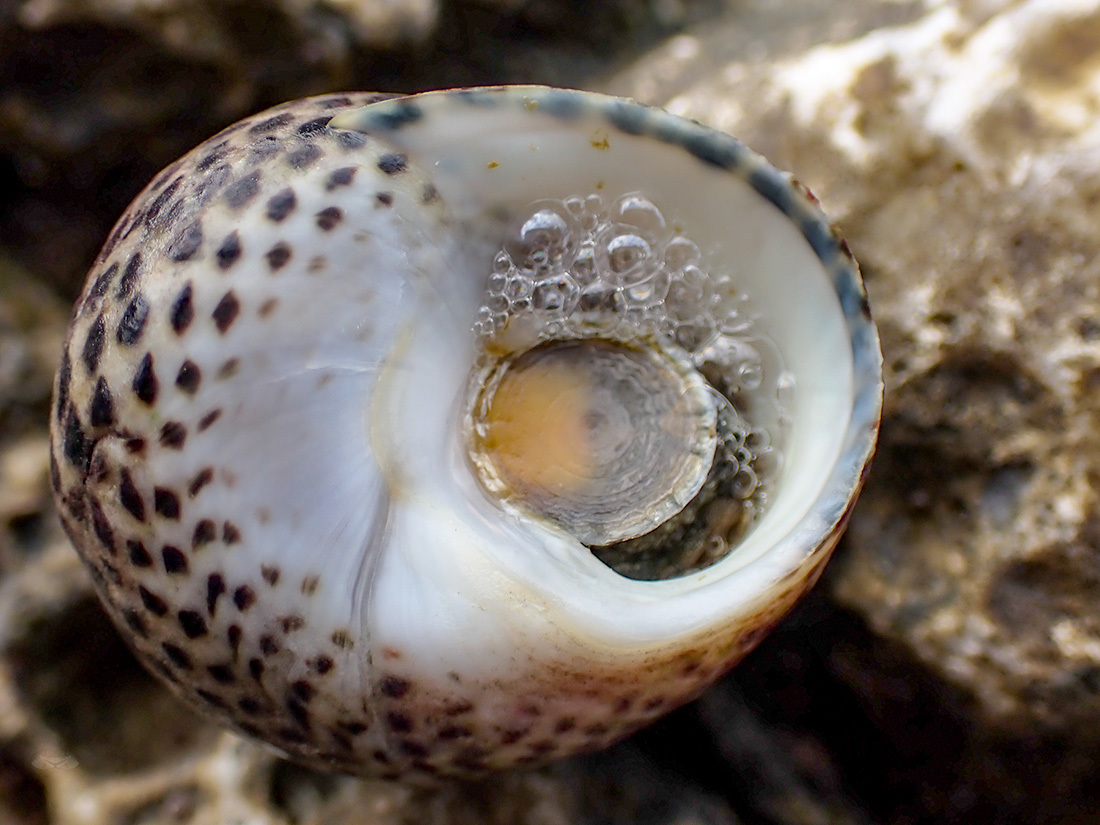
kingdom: Animalia
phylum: Mollusca
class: Gastropoda
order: Trochida
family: Trochidae
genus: Phorcus
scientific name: Phorcus turbinatus
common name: Turbinate monodont
